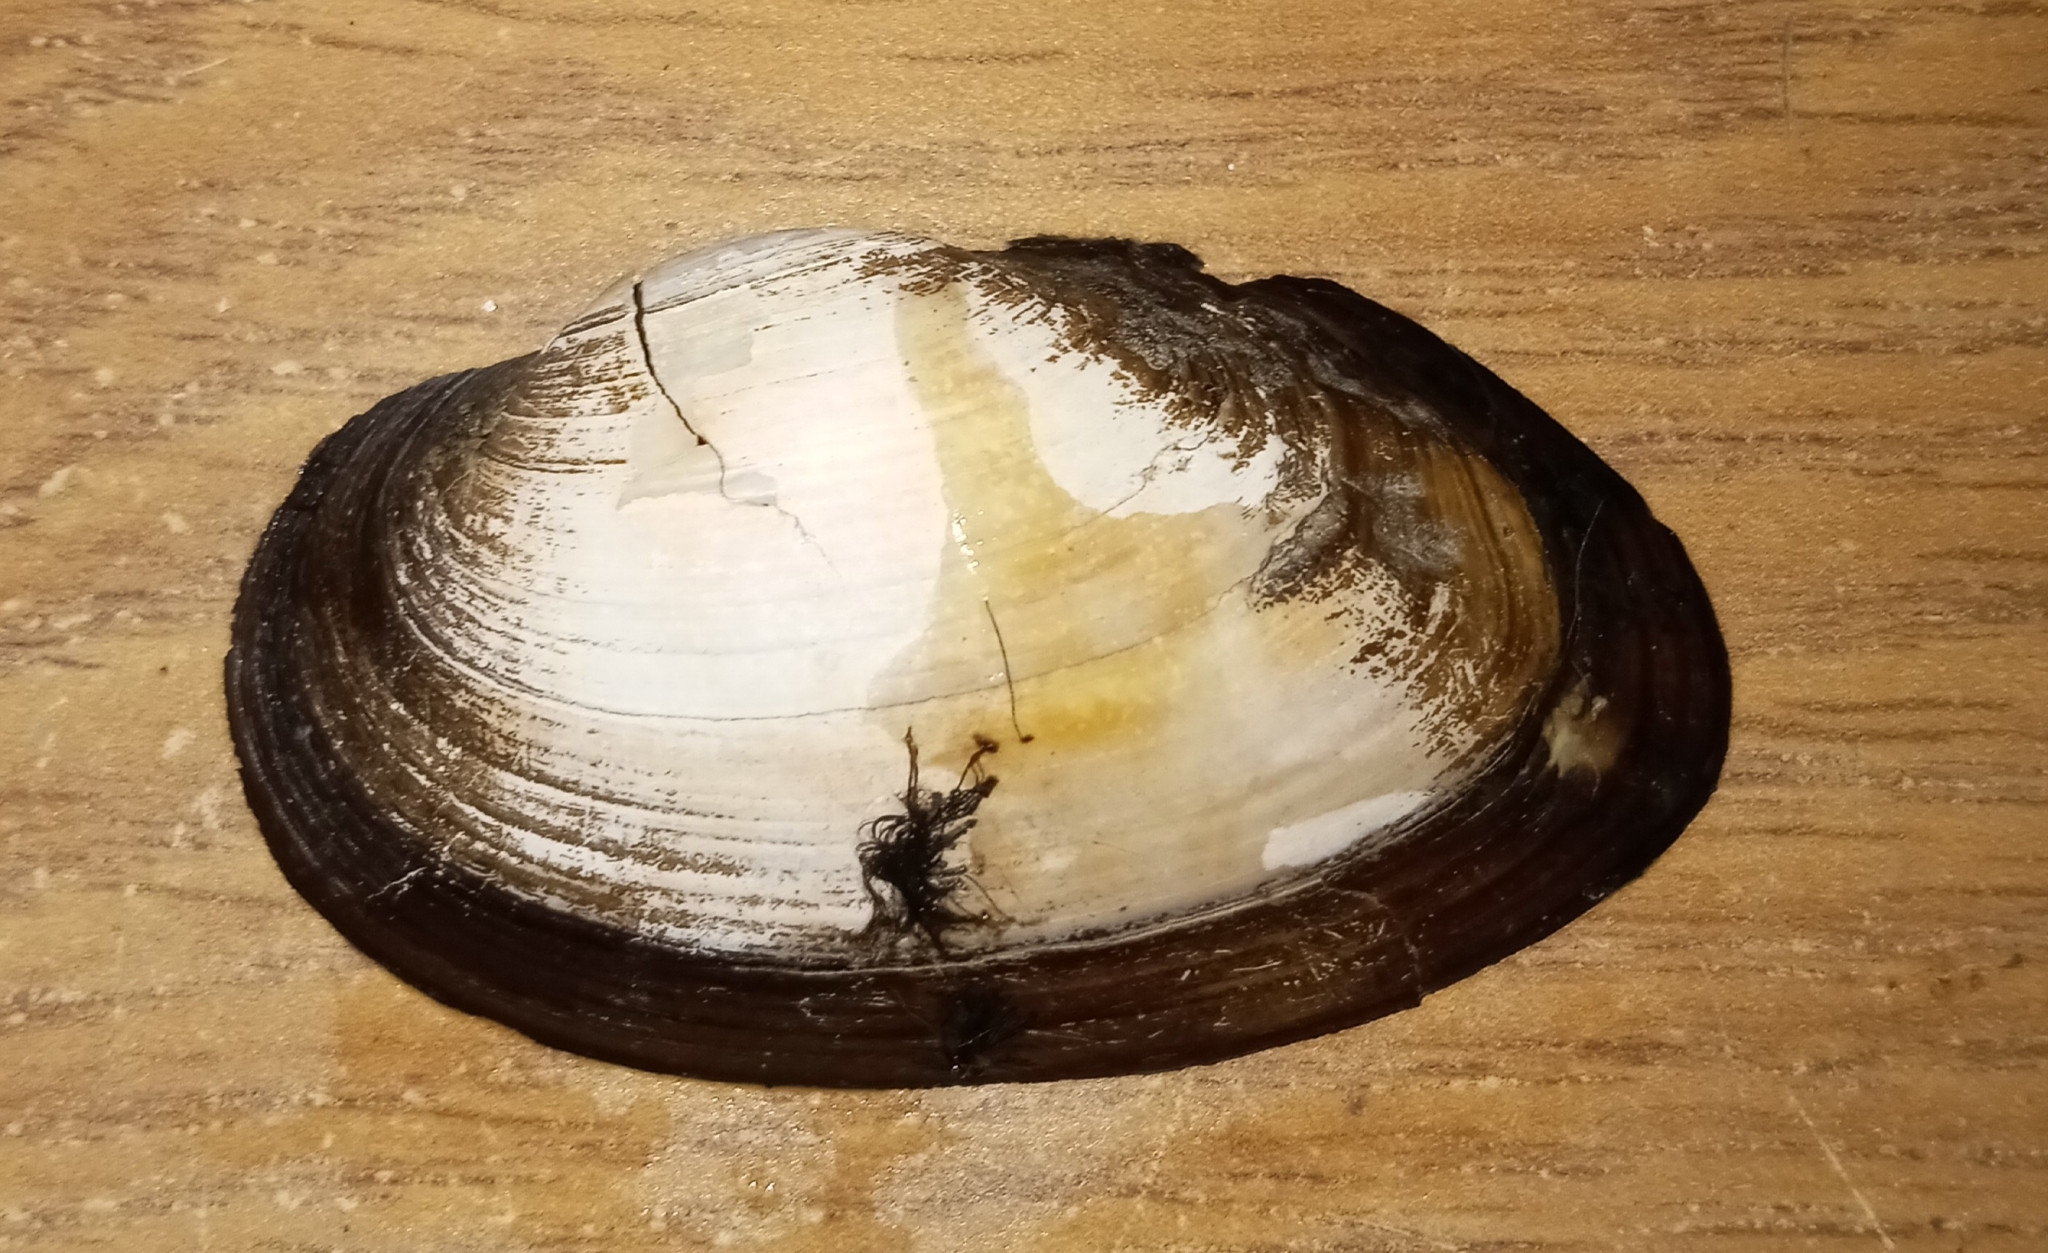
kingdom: Animalia
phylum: Mollusca
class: Bivalvia
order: Unionida
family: Unionidae
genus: Pyganodon
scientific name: Pyganodon grandis
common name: Giant floater
